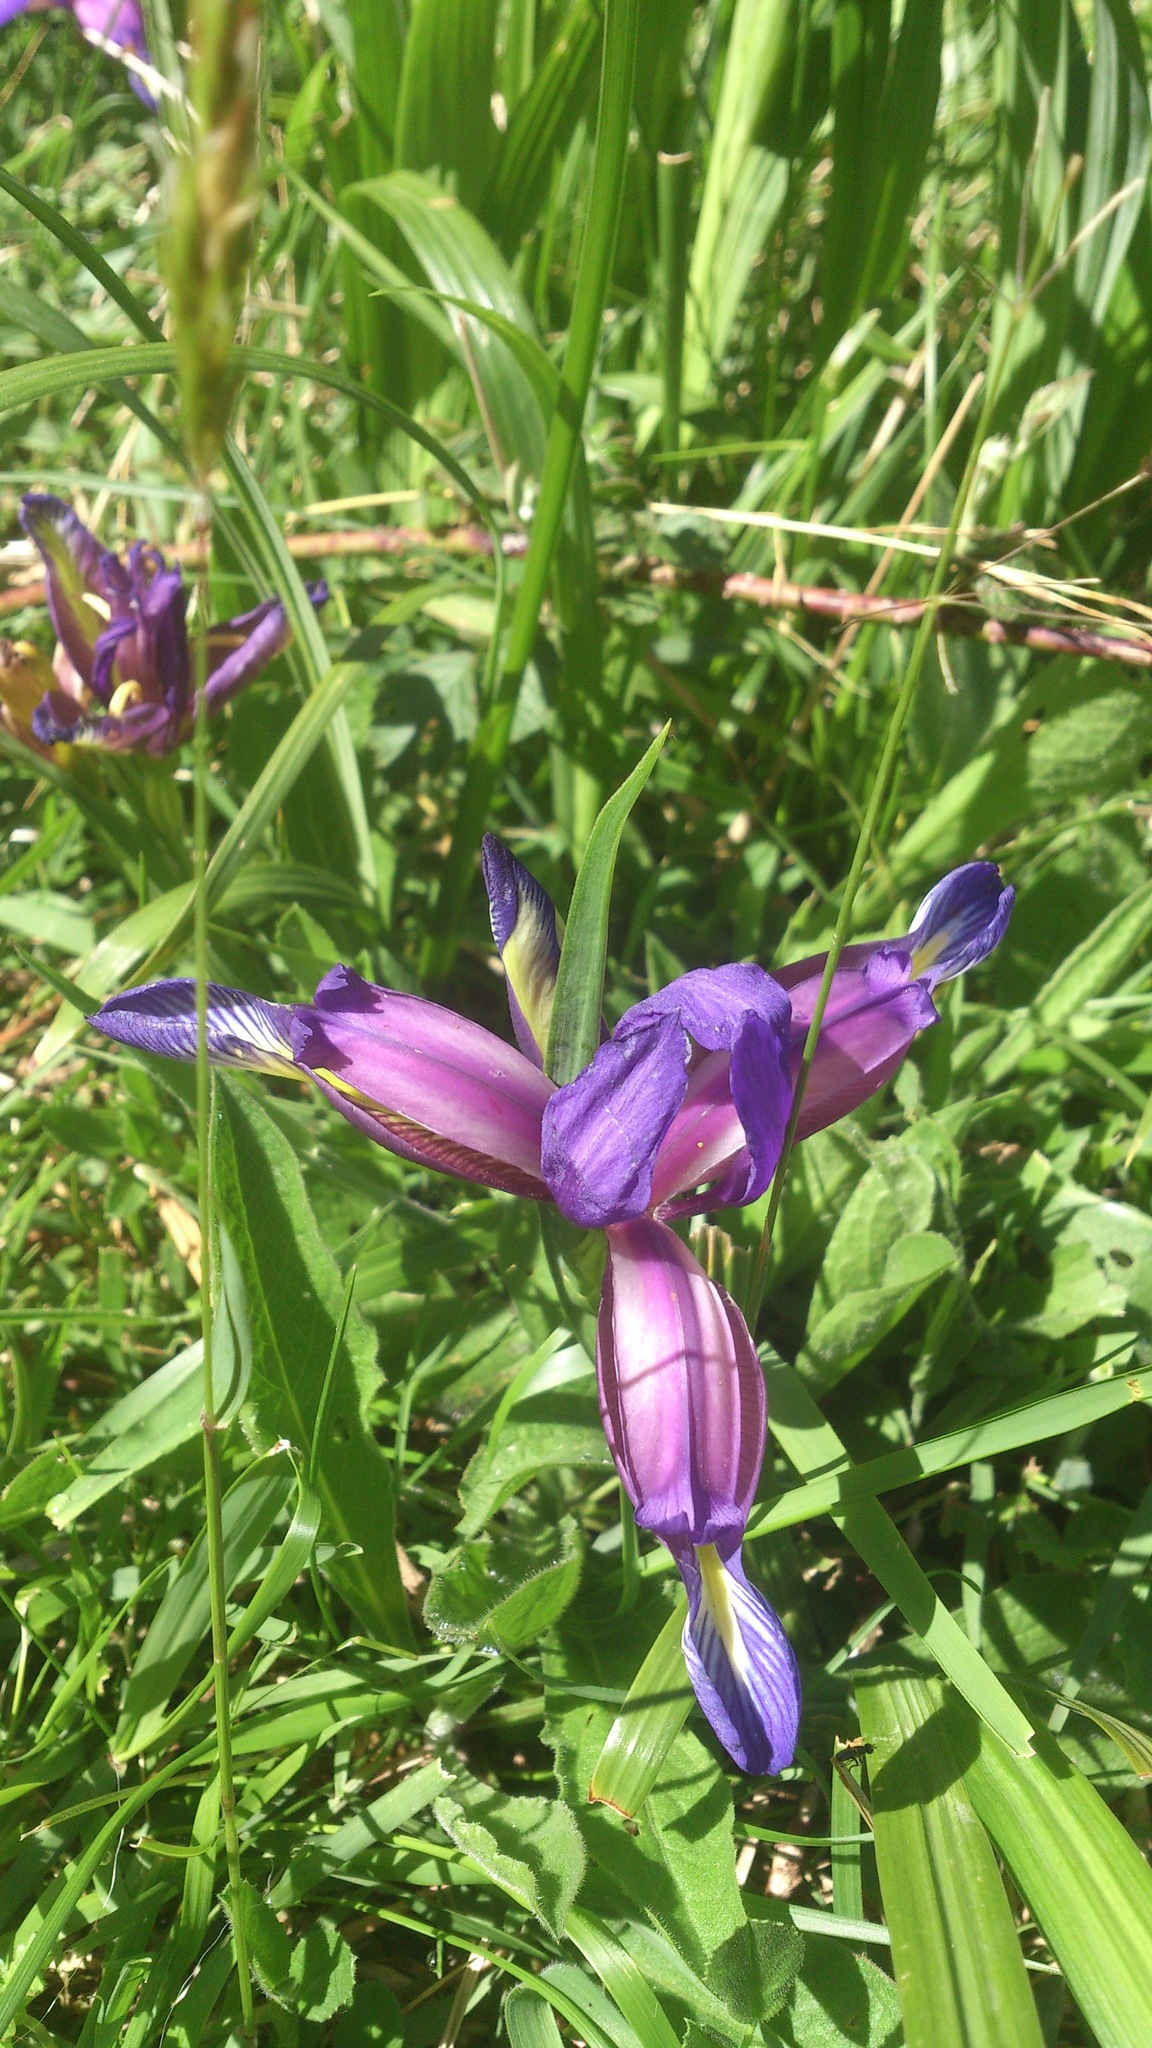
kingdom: Plantae
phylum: Tracheophyta
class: Liliopsida
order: Asparagales
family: Iridaceae
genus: Iris
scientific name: Iris graminea
